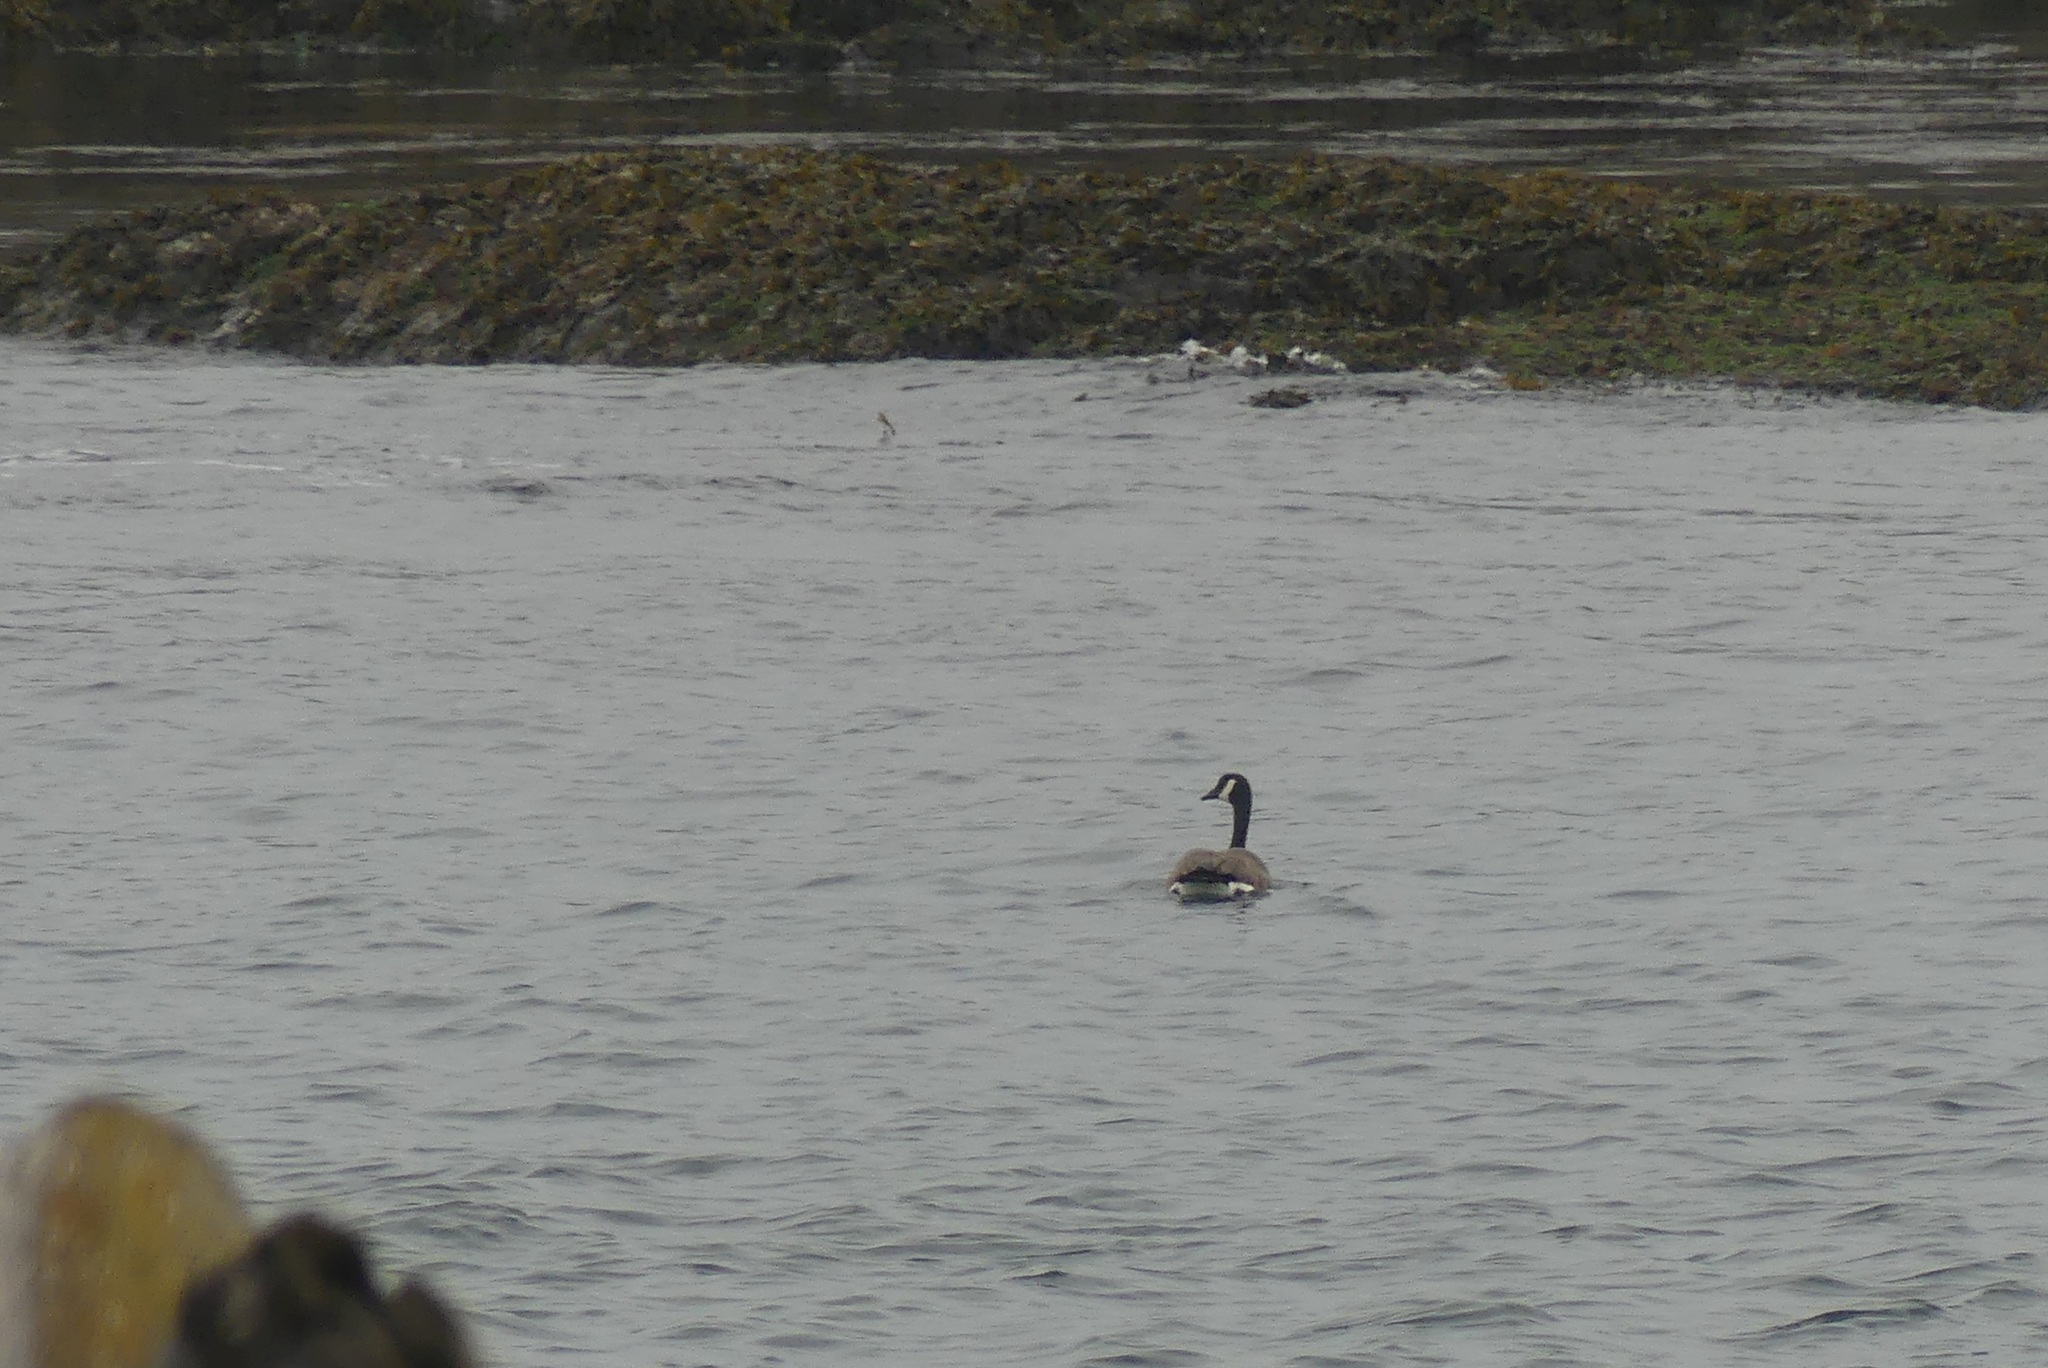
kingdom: Animalia
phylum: Chordata
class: Aves
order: Anseriformes
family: Anatidae
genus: Branta
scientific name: Branta canadensis
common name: Canada goose
